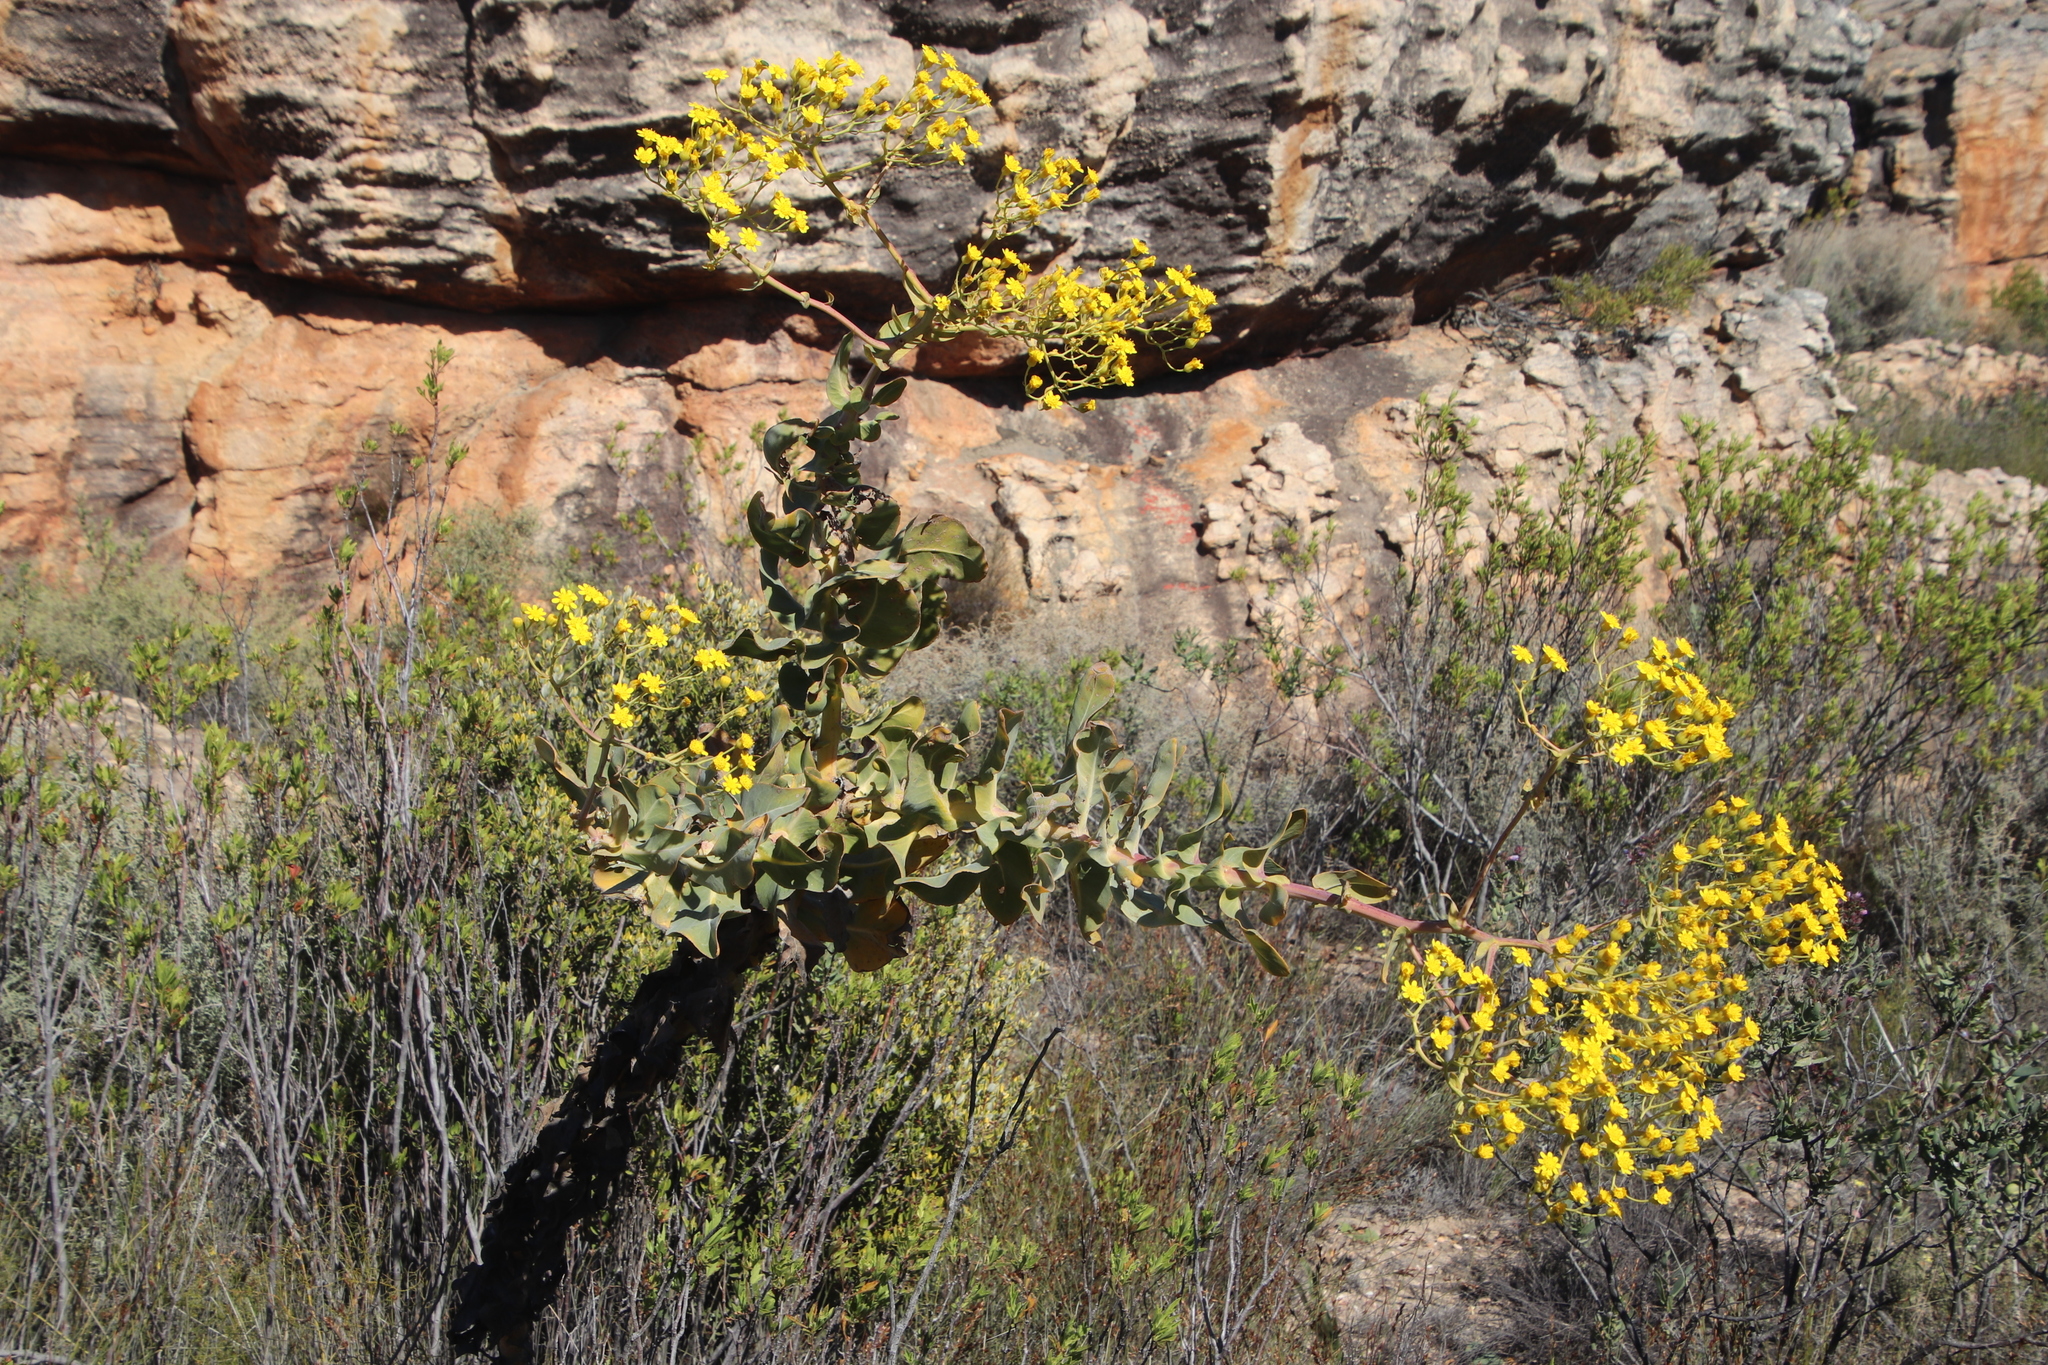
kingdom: Plantae
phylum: Tracheophyta
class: Magnoliopsida
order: Asterales
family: Asteraceae
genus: Othonna
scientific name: Othonna parviflora
